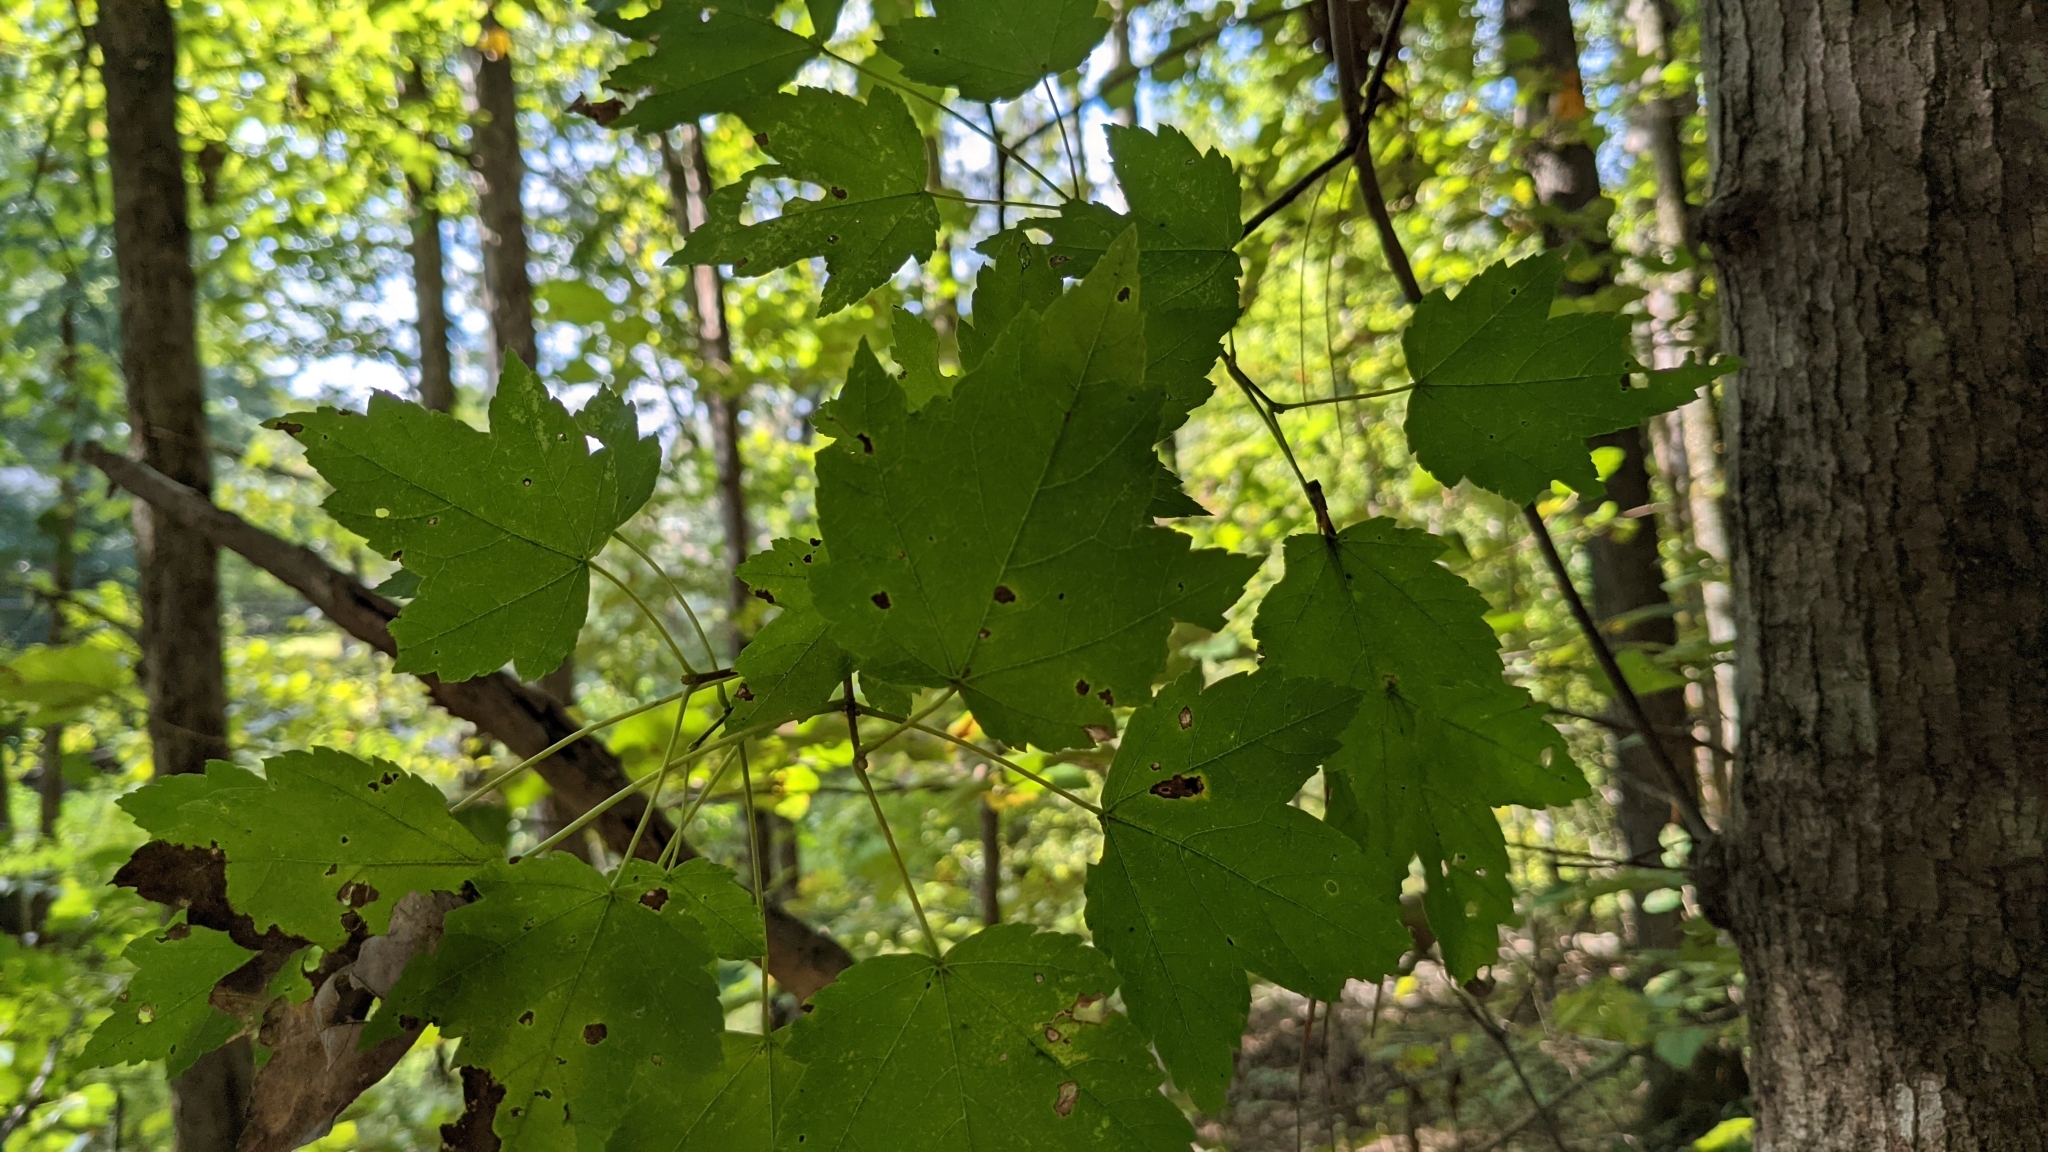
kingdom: Plantae
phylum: Tracheophyta
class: Magnoliopsida
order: Sapindales
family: Sapindaceae
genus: Acer
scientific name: Acer rubrum
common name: Red maple
